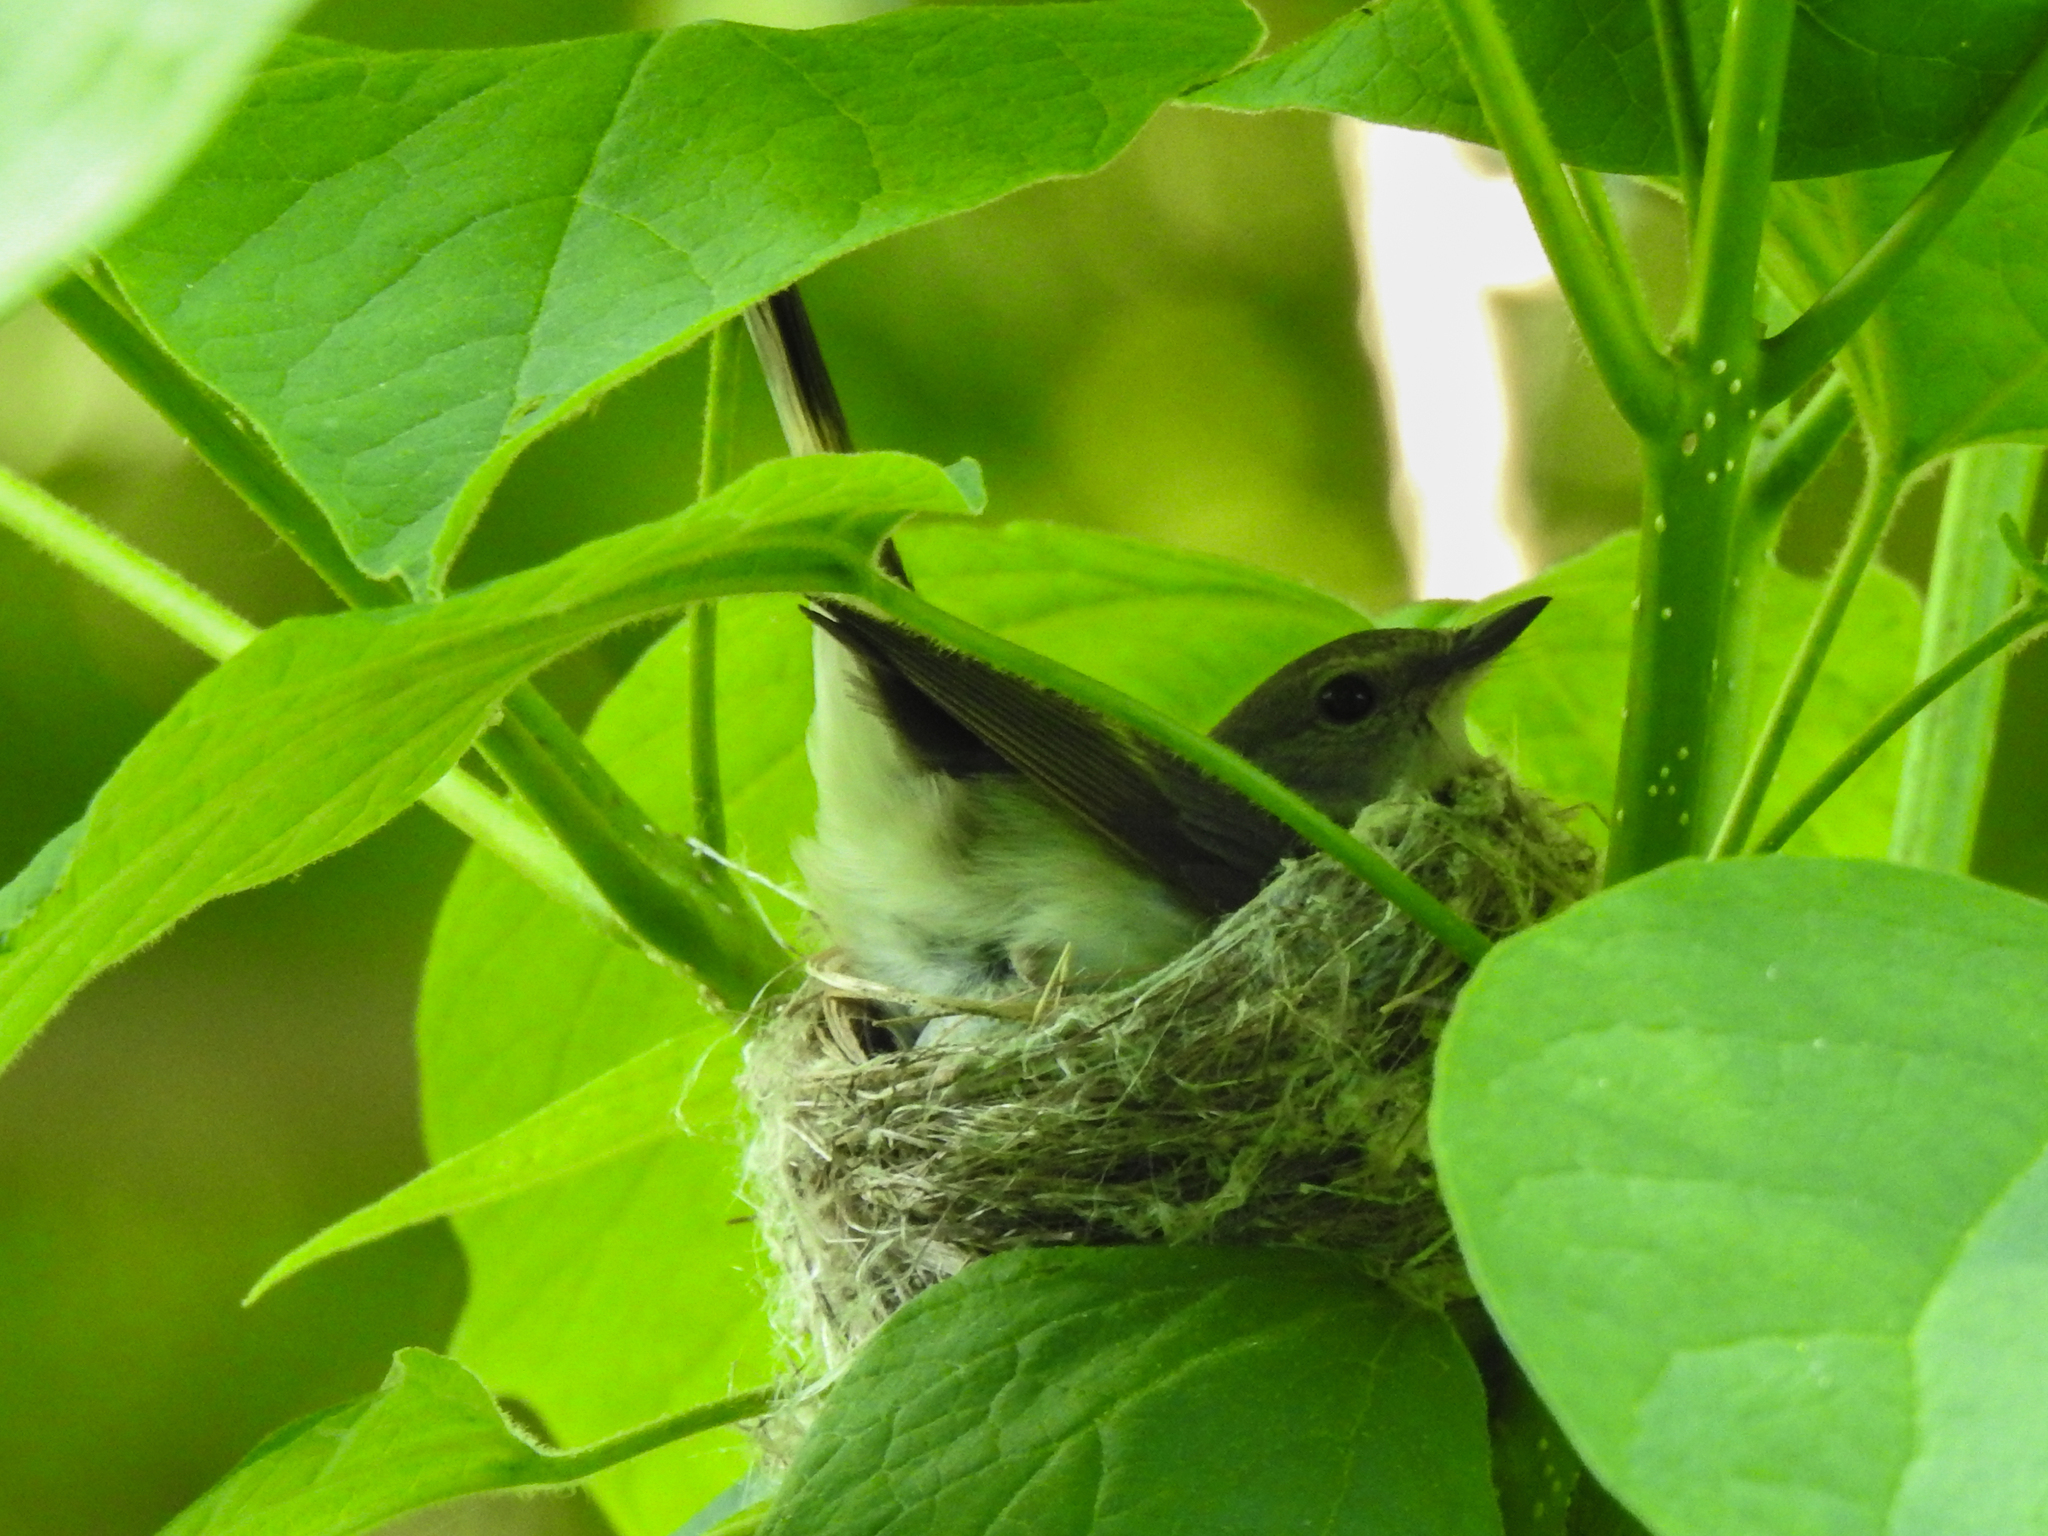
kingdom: Animalia
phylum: Chordata
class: Aves
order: Passeriformes
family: Vireonidae
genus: Vireo
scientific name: Vireo olivaceus
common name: Red-eyed vireo
